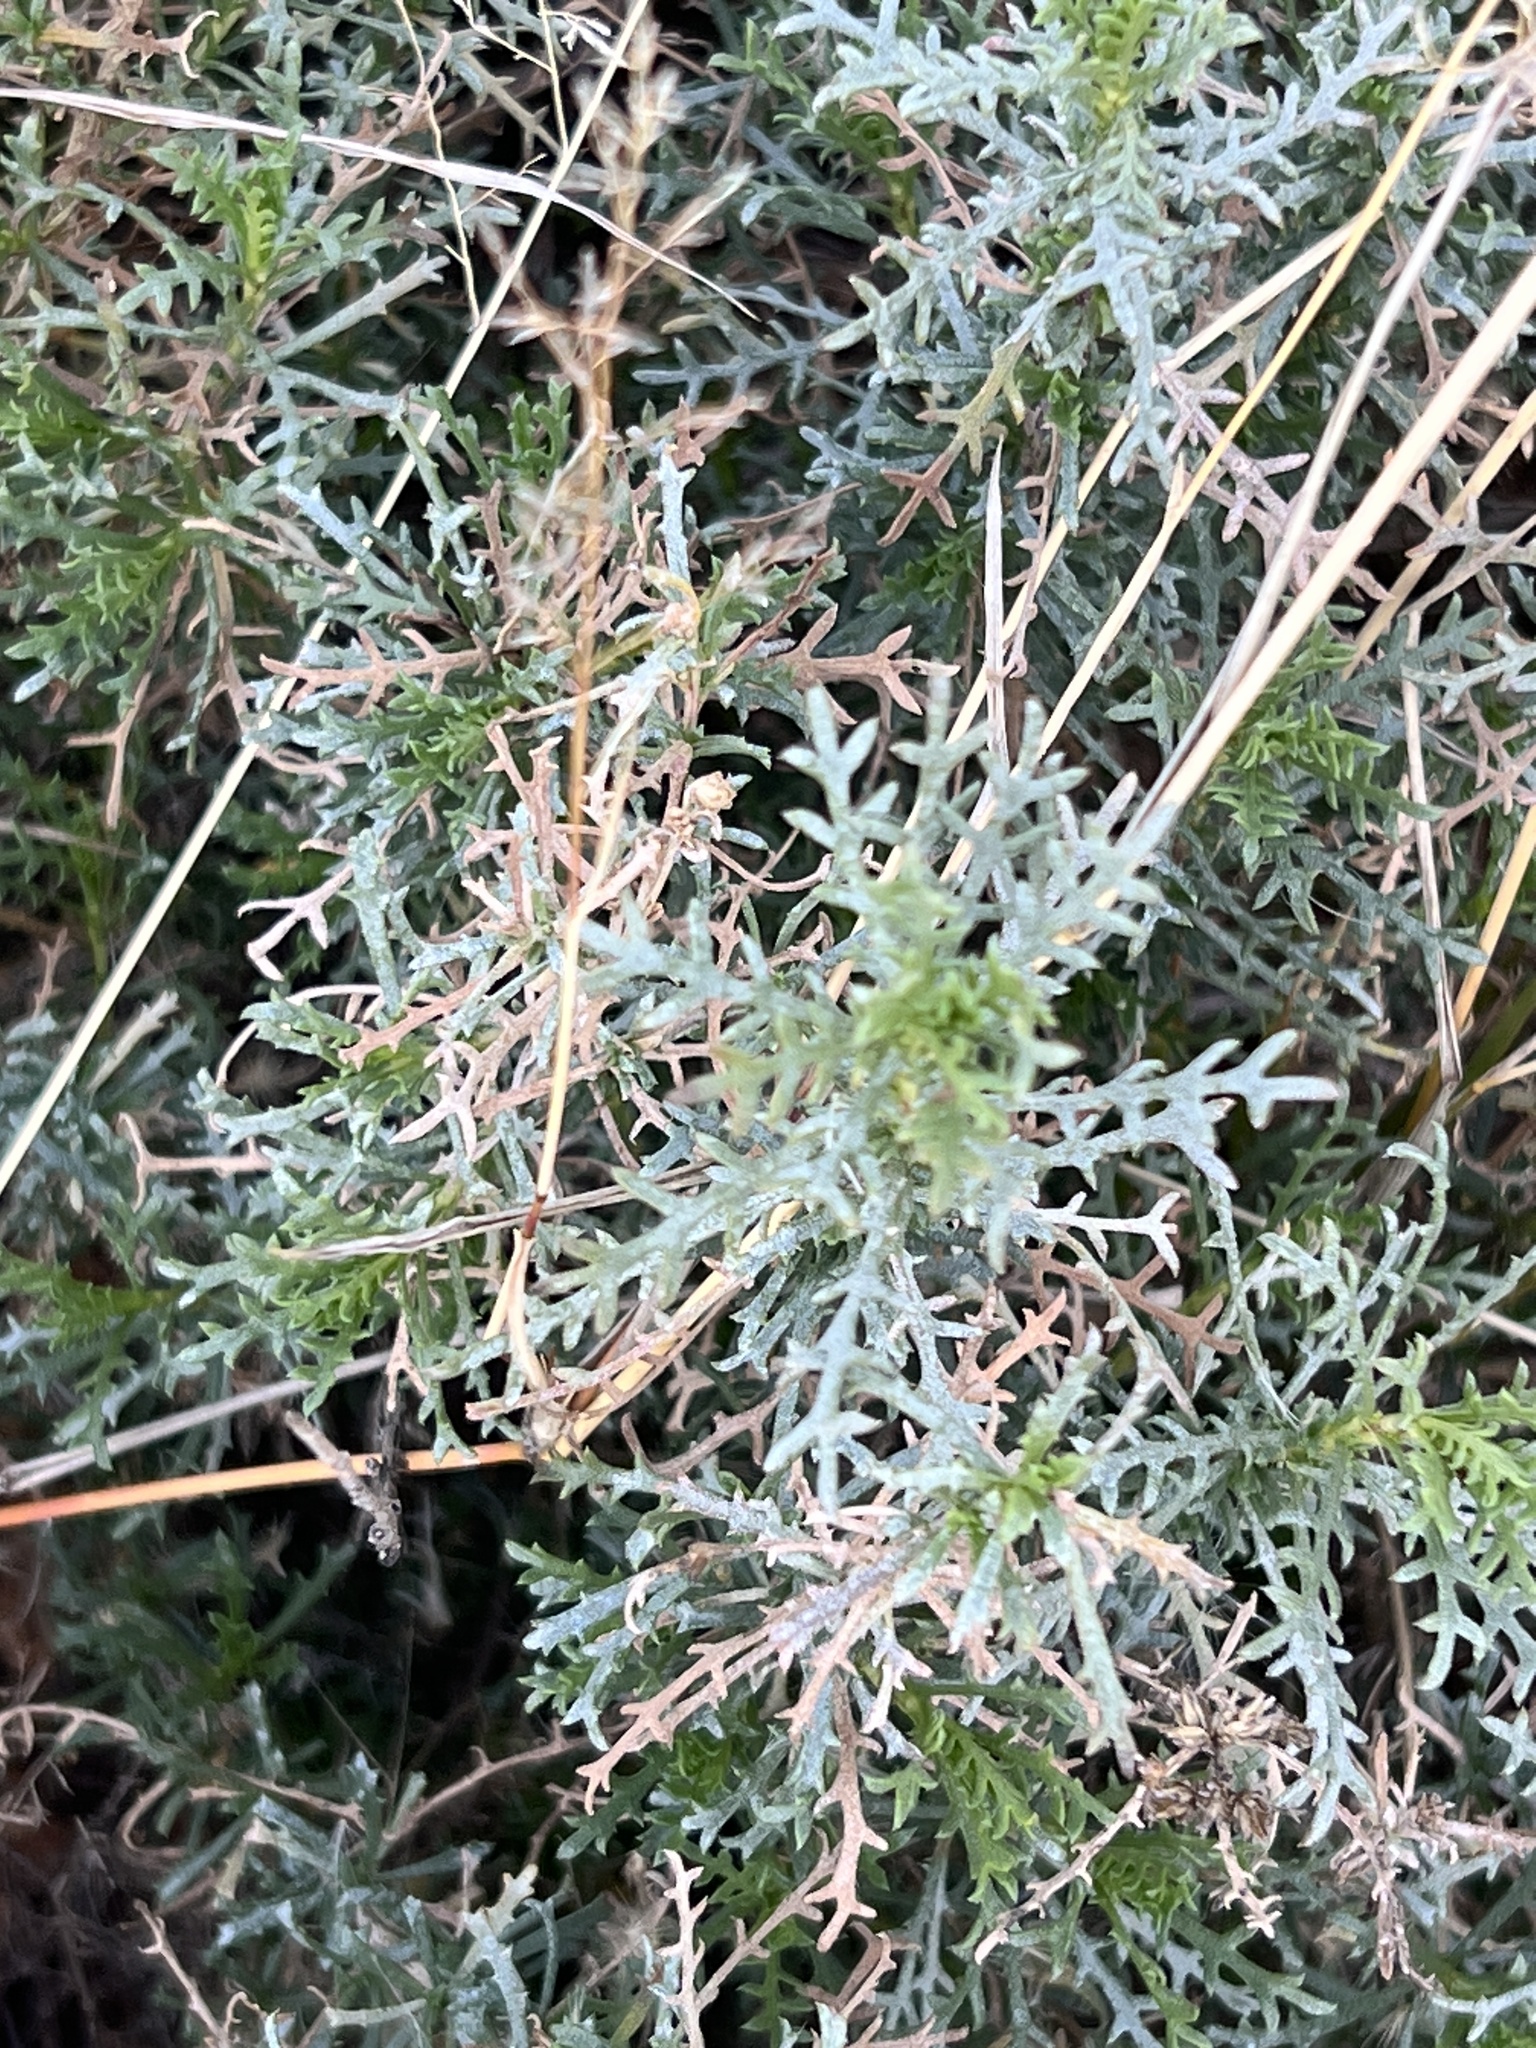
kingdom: Plantae
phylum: Tracheophyta
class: Magnoliopsida
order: Asterales
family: Asteraceae
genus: Isocoma
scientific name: Isocoma tenuisecta
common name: Burroweed
